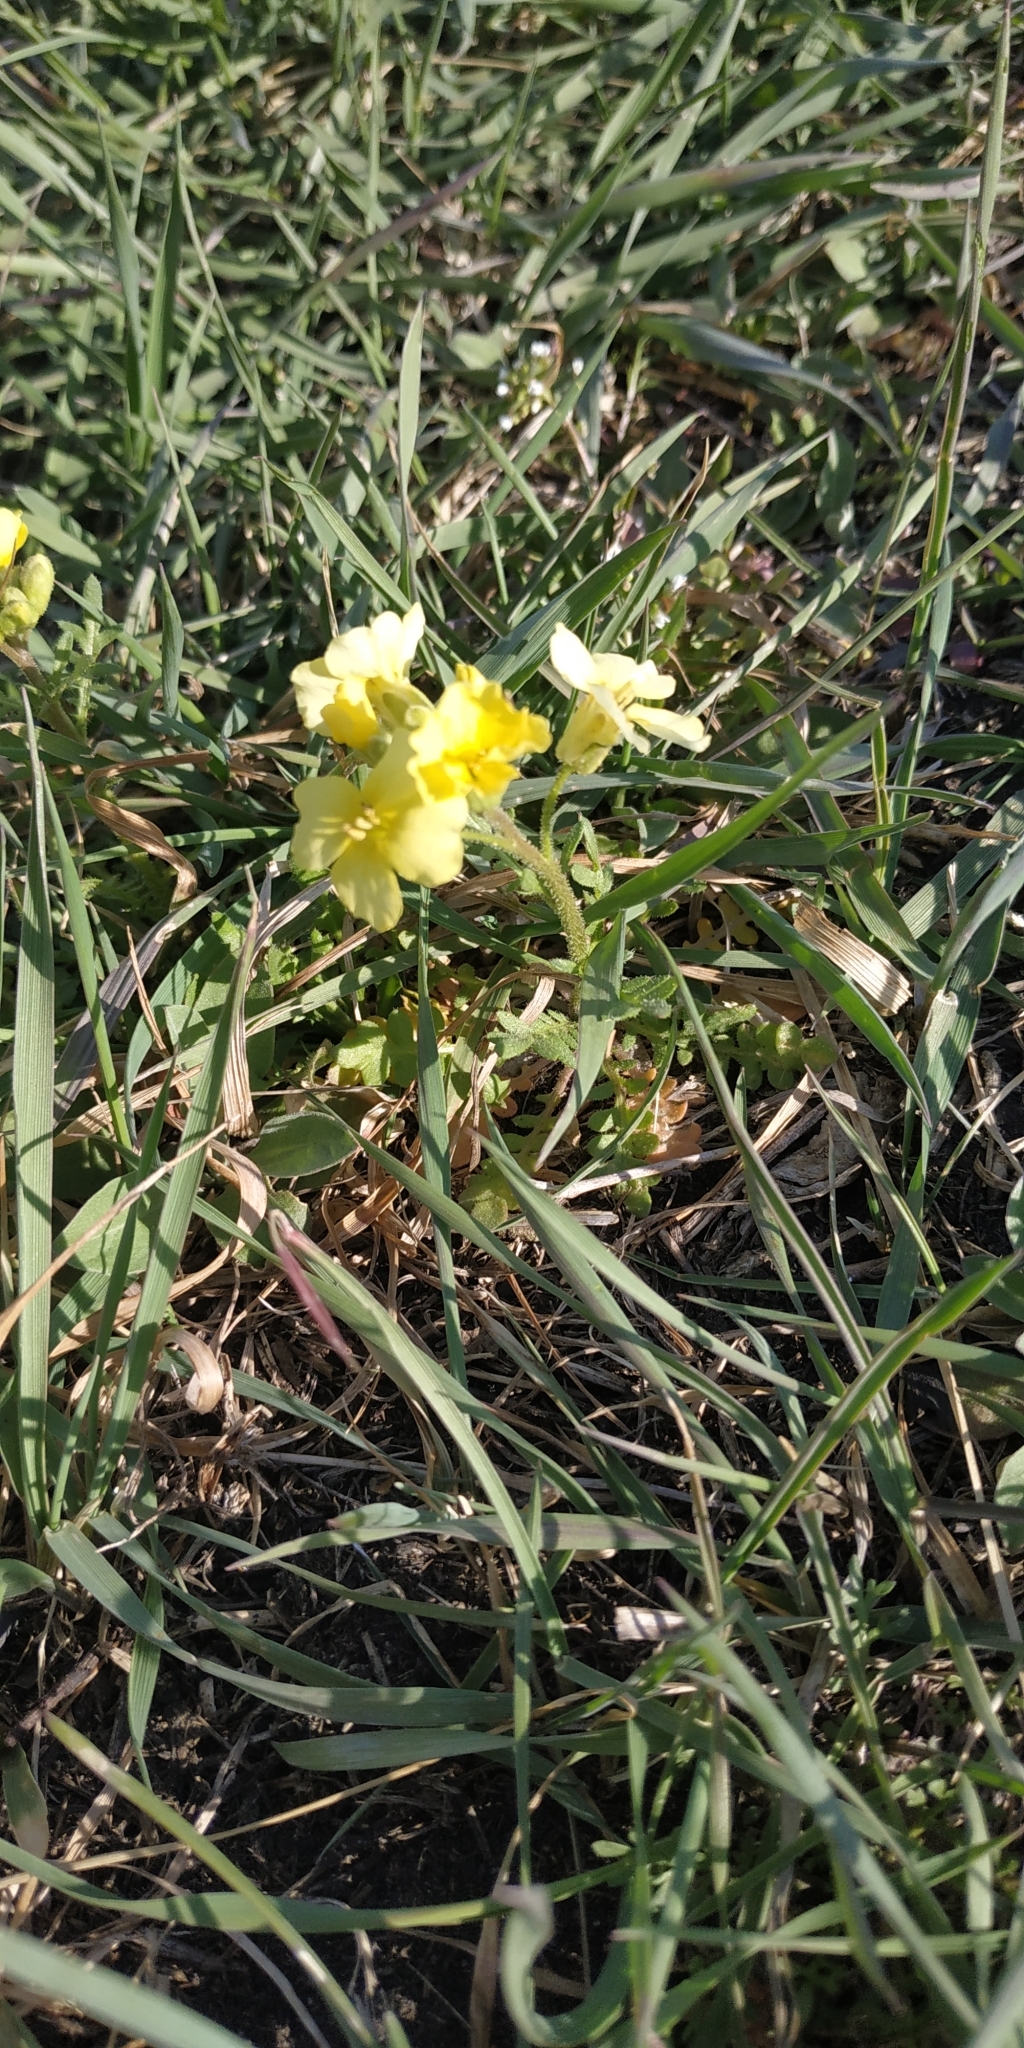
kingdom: Plantae
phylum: Tracheophyta
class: Magnoliopsida
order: Brassicales
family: Brassicaceae
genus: Chorispora
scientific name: Chorispora sibirica
